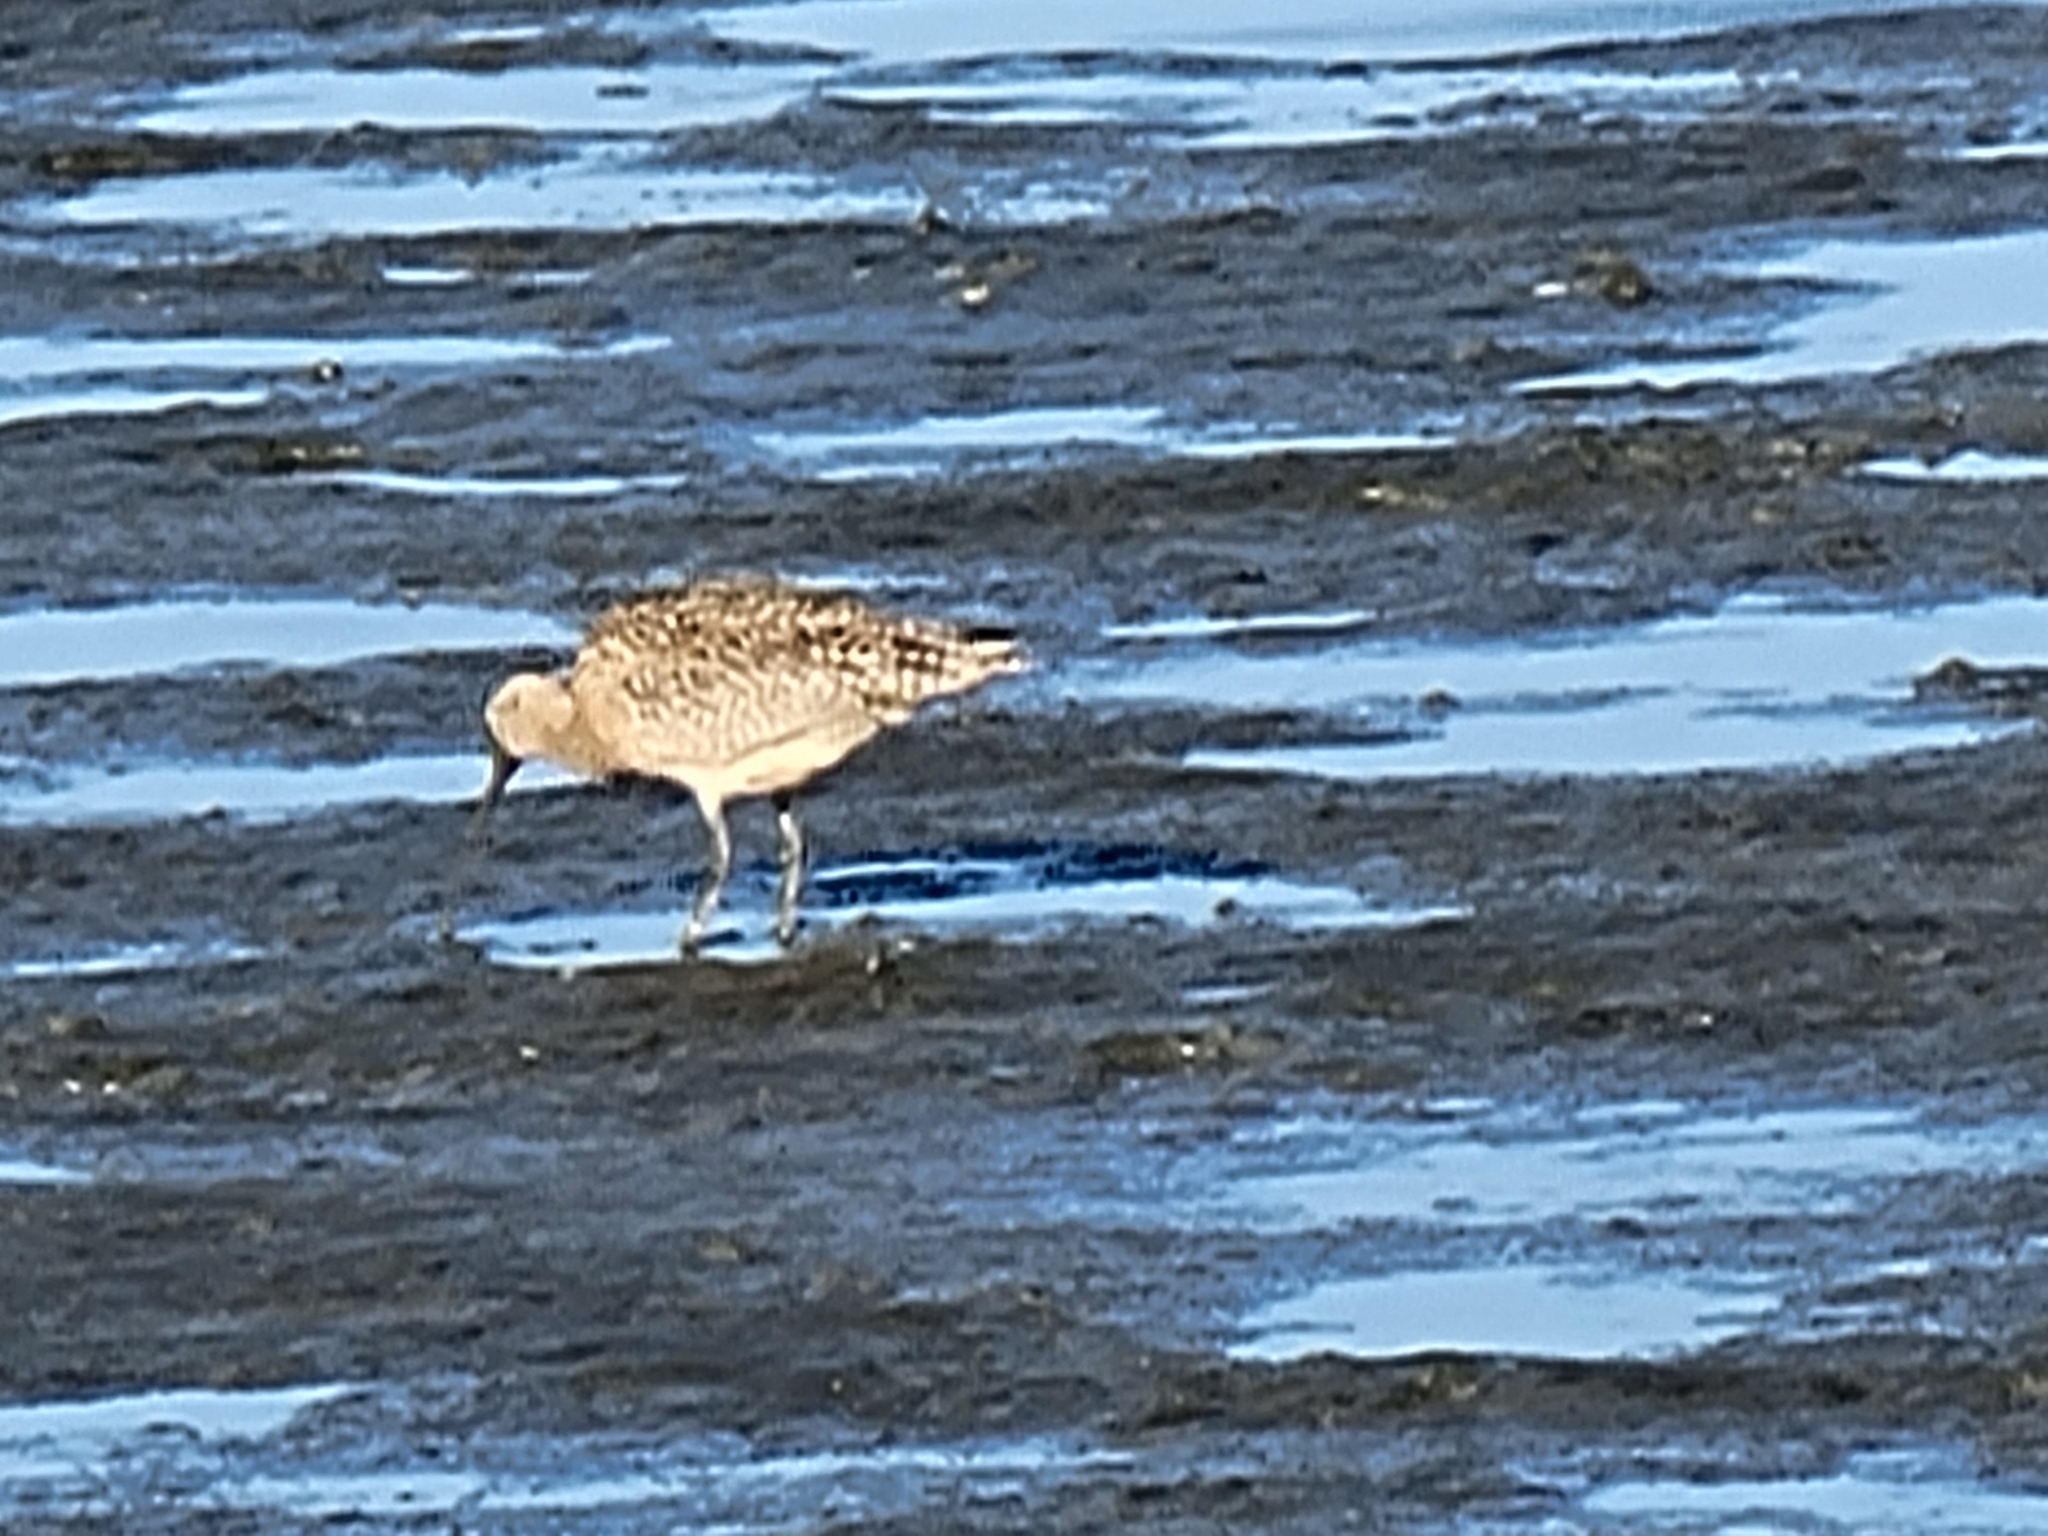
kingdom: Animalia
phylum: Chordata
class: Aves
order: Charadriiformes
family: Scolopacidae
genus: Numenius
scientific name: Numenius americanus
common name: Long-billed curlew
